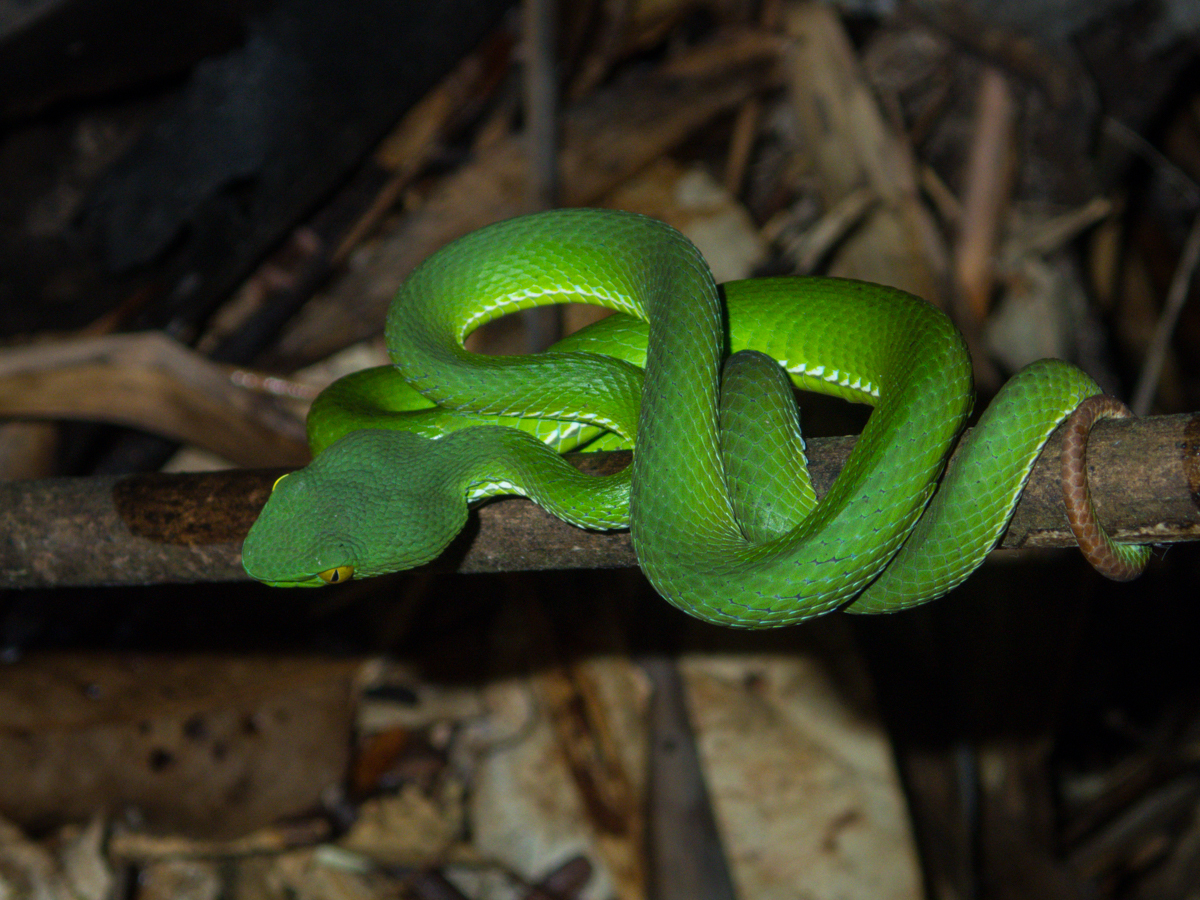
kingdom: Animalia
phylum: Chordata
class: Squamata
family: Viperidae
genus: Trimeresurus
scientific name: Trimeresurus cardamomensis
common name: Cardamom mountains green pitviper
